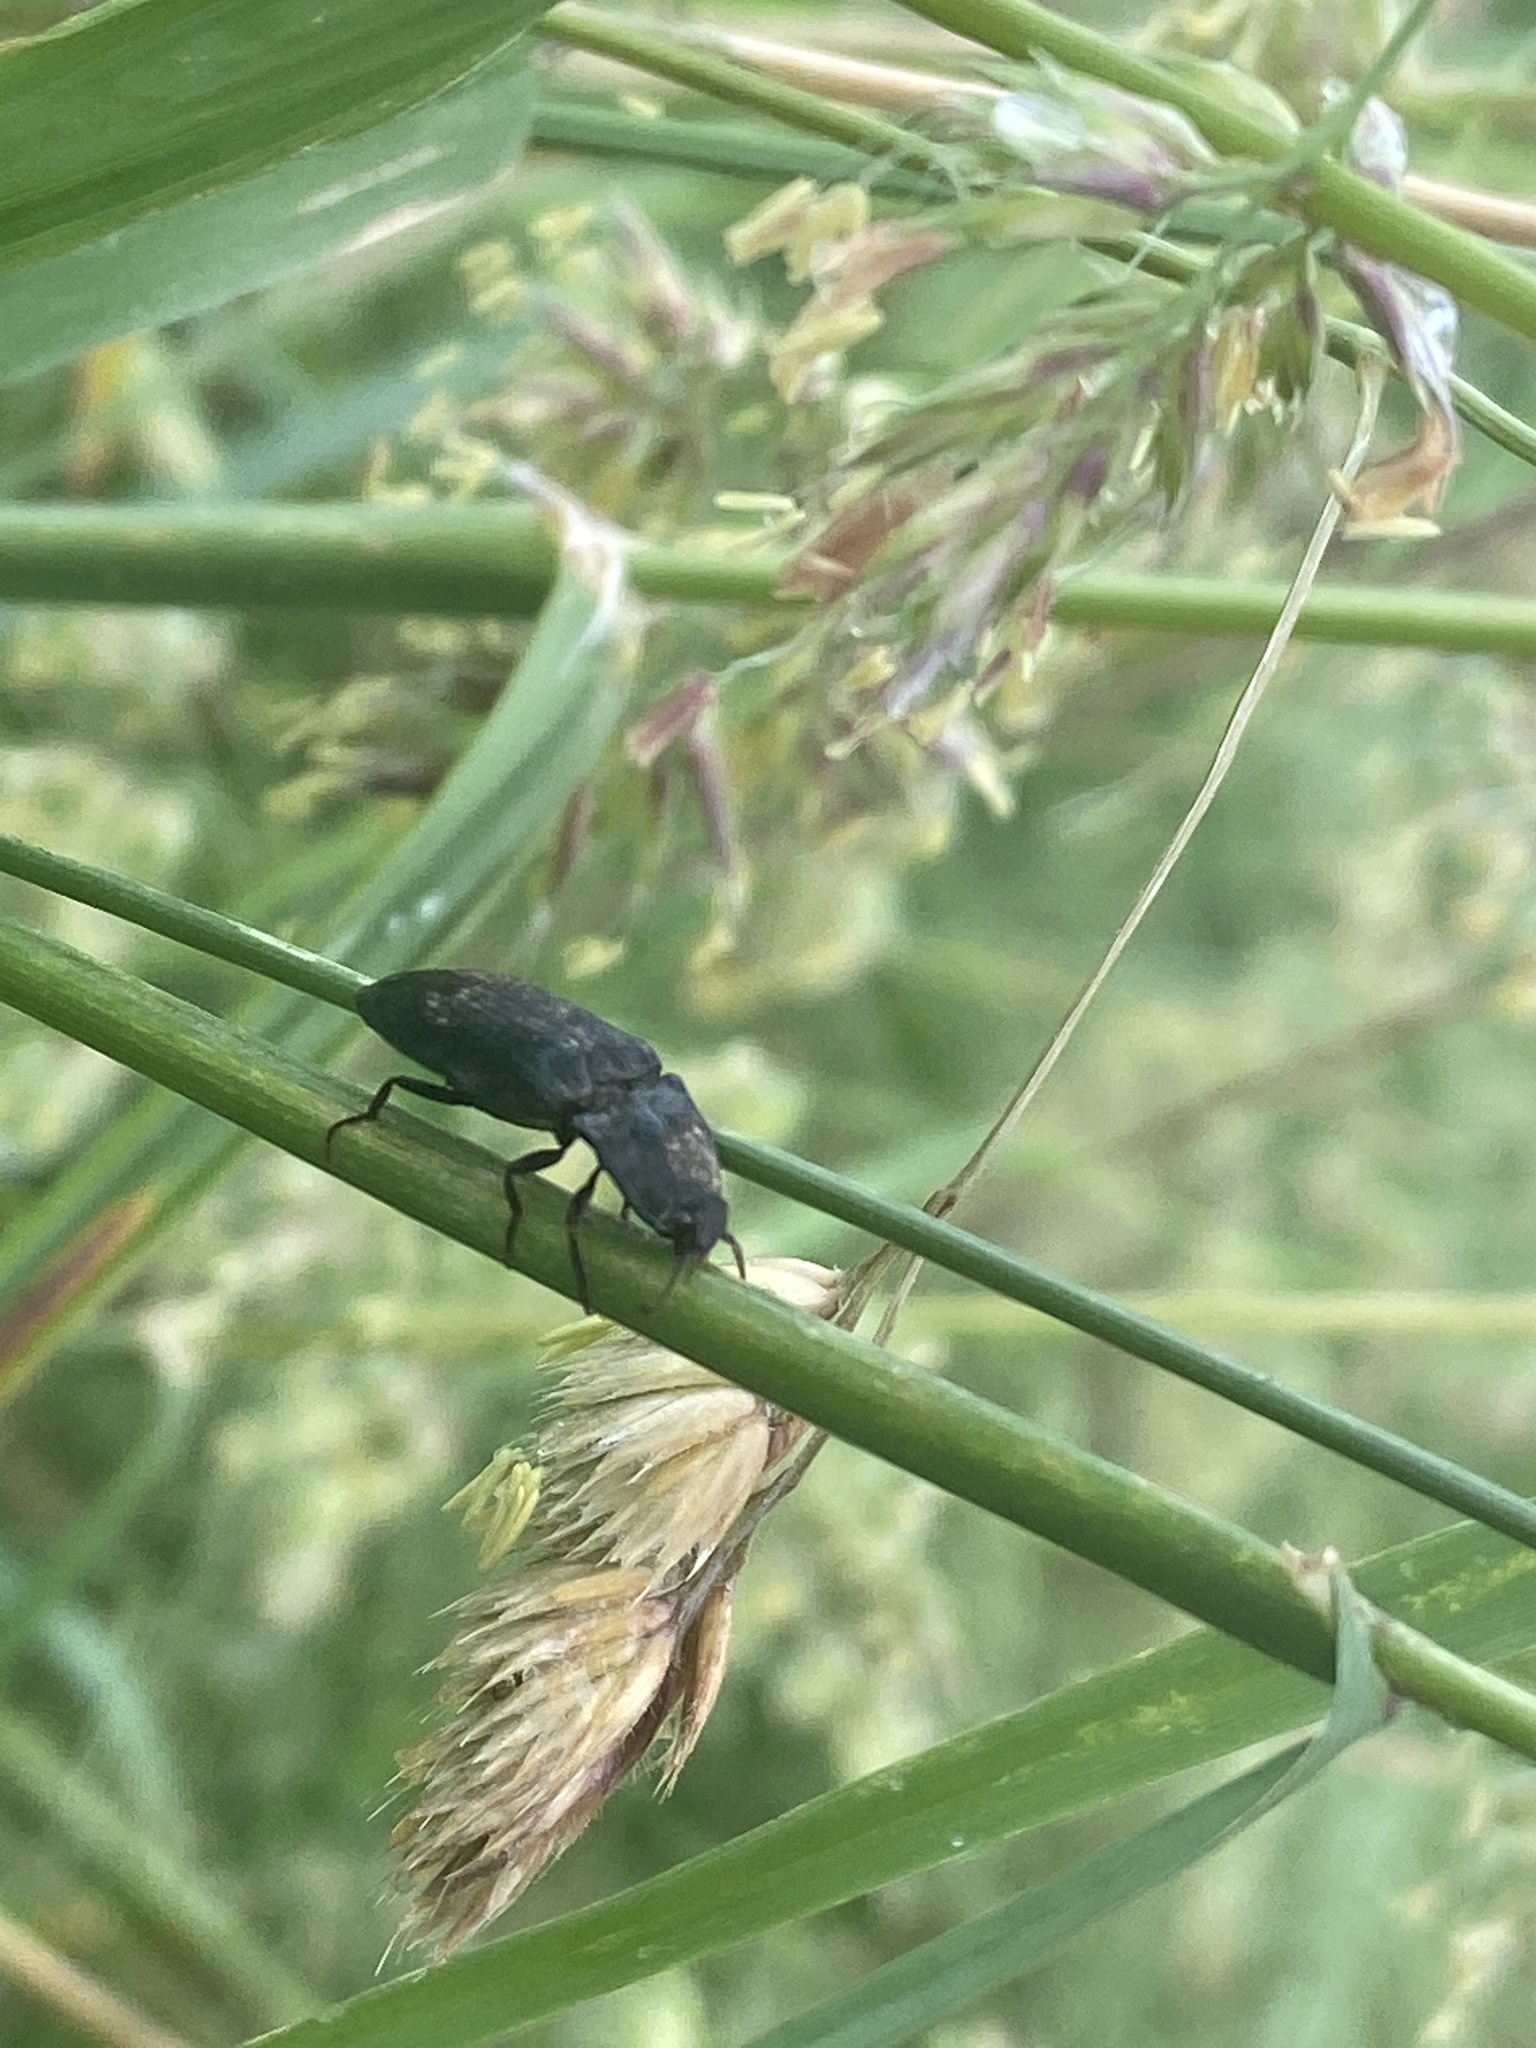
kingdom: Animalia
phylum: Arthropoda
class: Insecta
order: Coleoptera
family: Elateridae
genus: Agrypnus
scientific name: Agrypnus murinus
